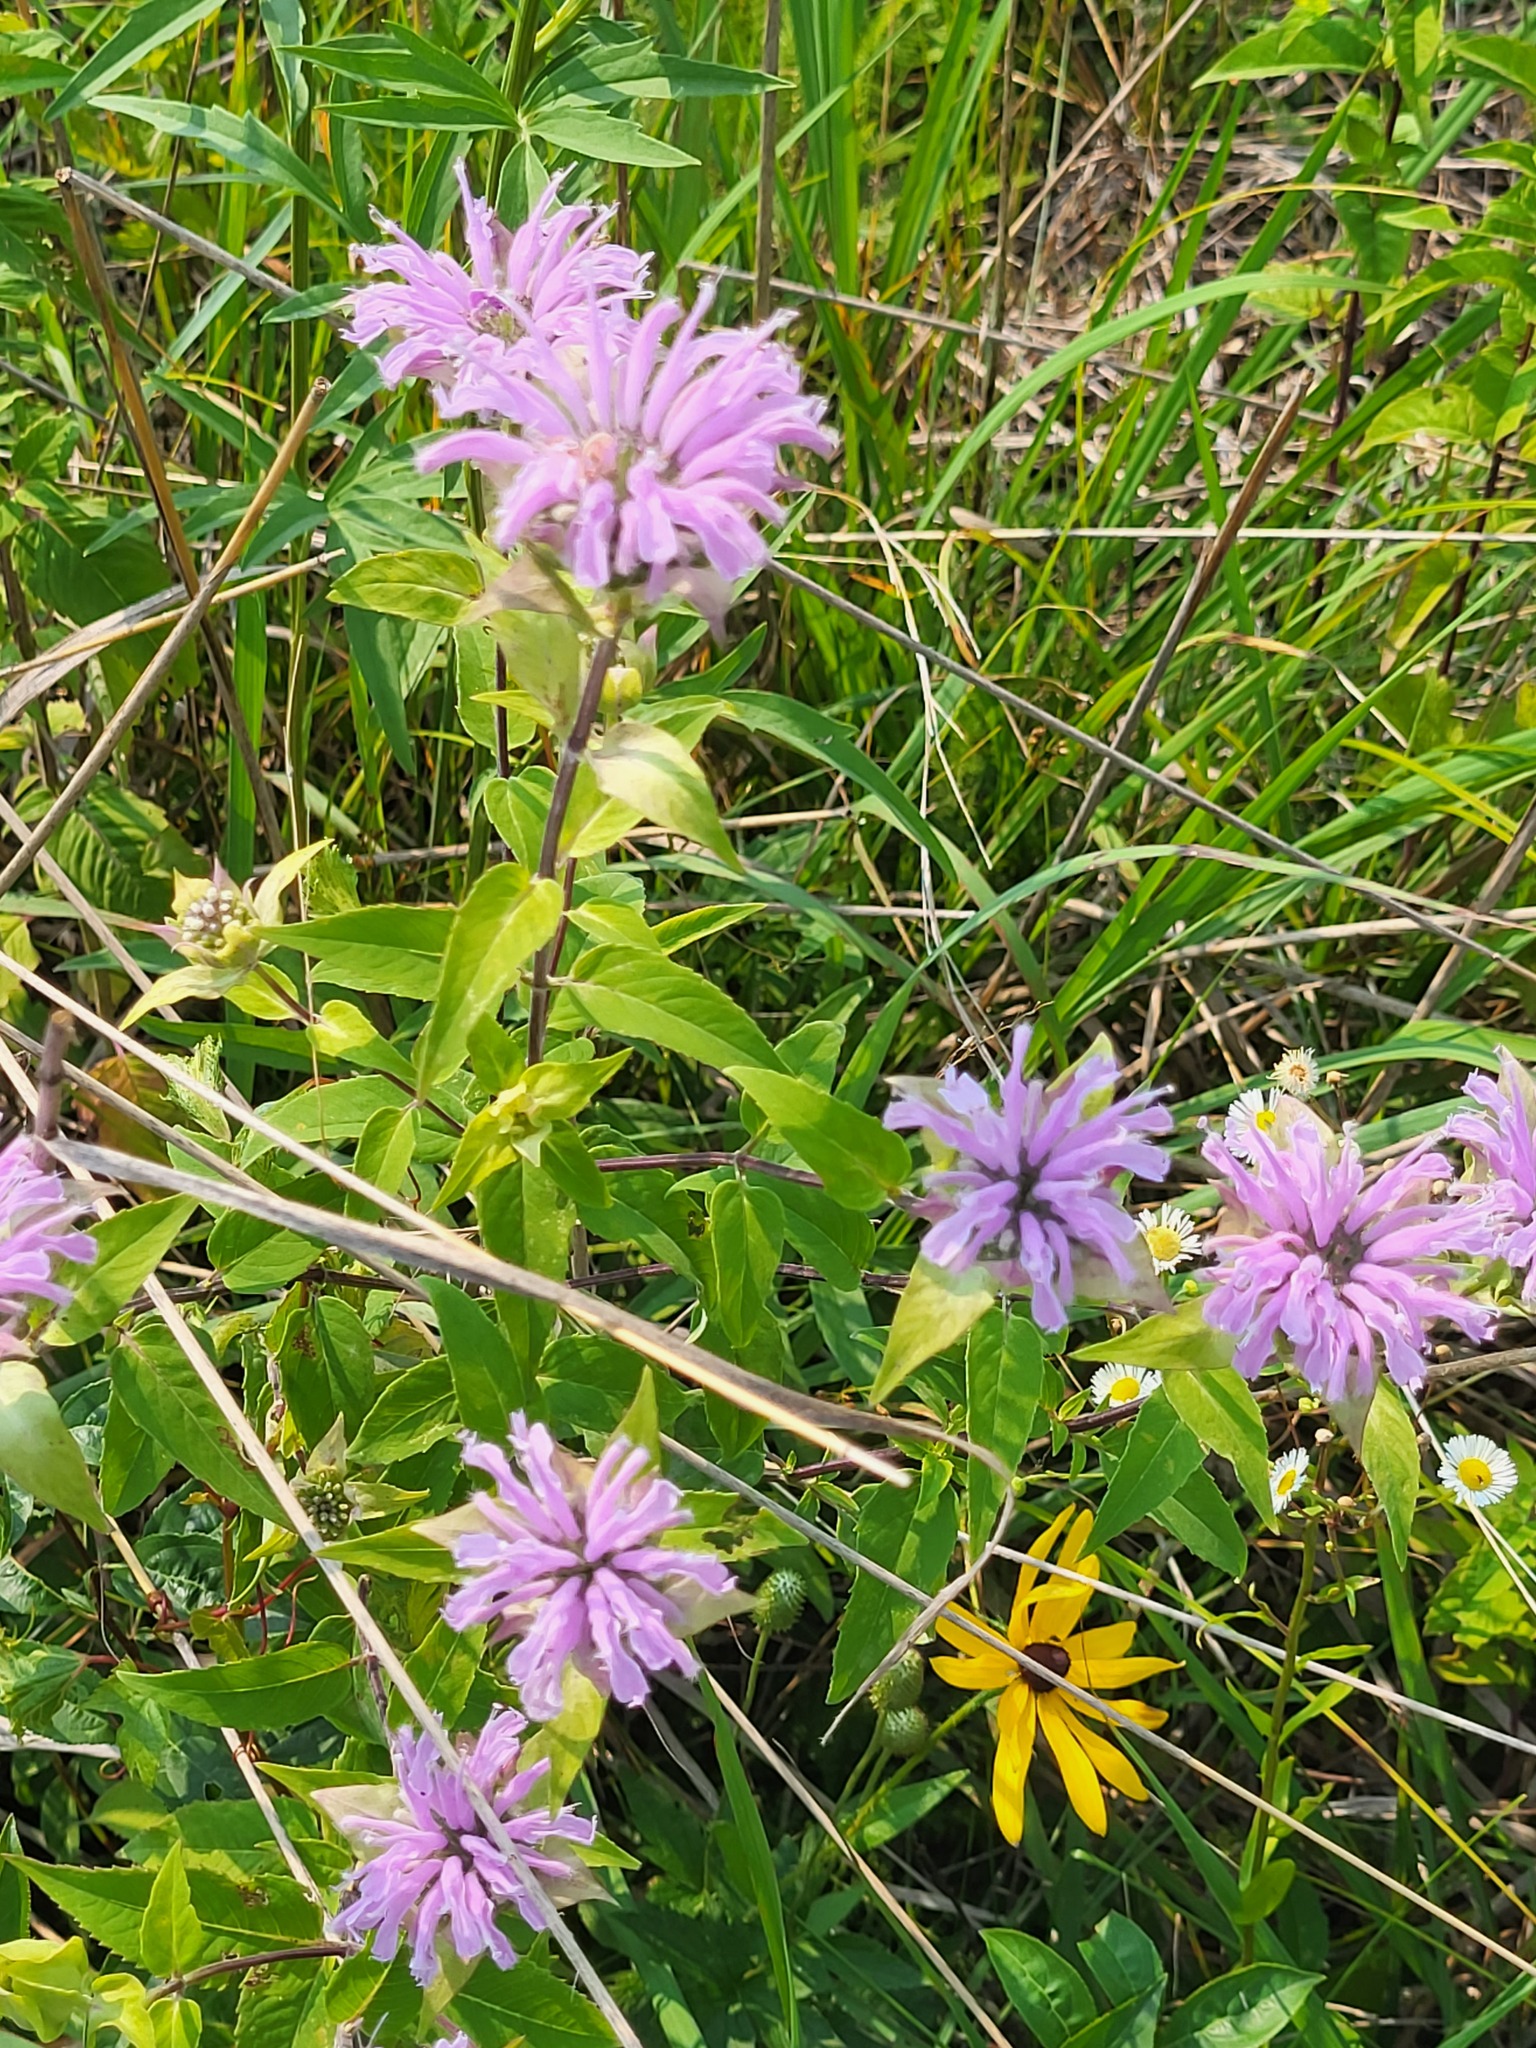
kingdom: Plantae
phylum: Tracheophyta
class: Magnoliopsida
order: Lamiales
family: Lamiaceae
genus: Monarda
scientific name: Monarda fistulosa
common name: Purple beebalm
